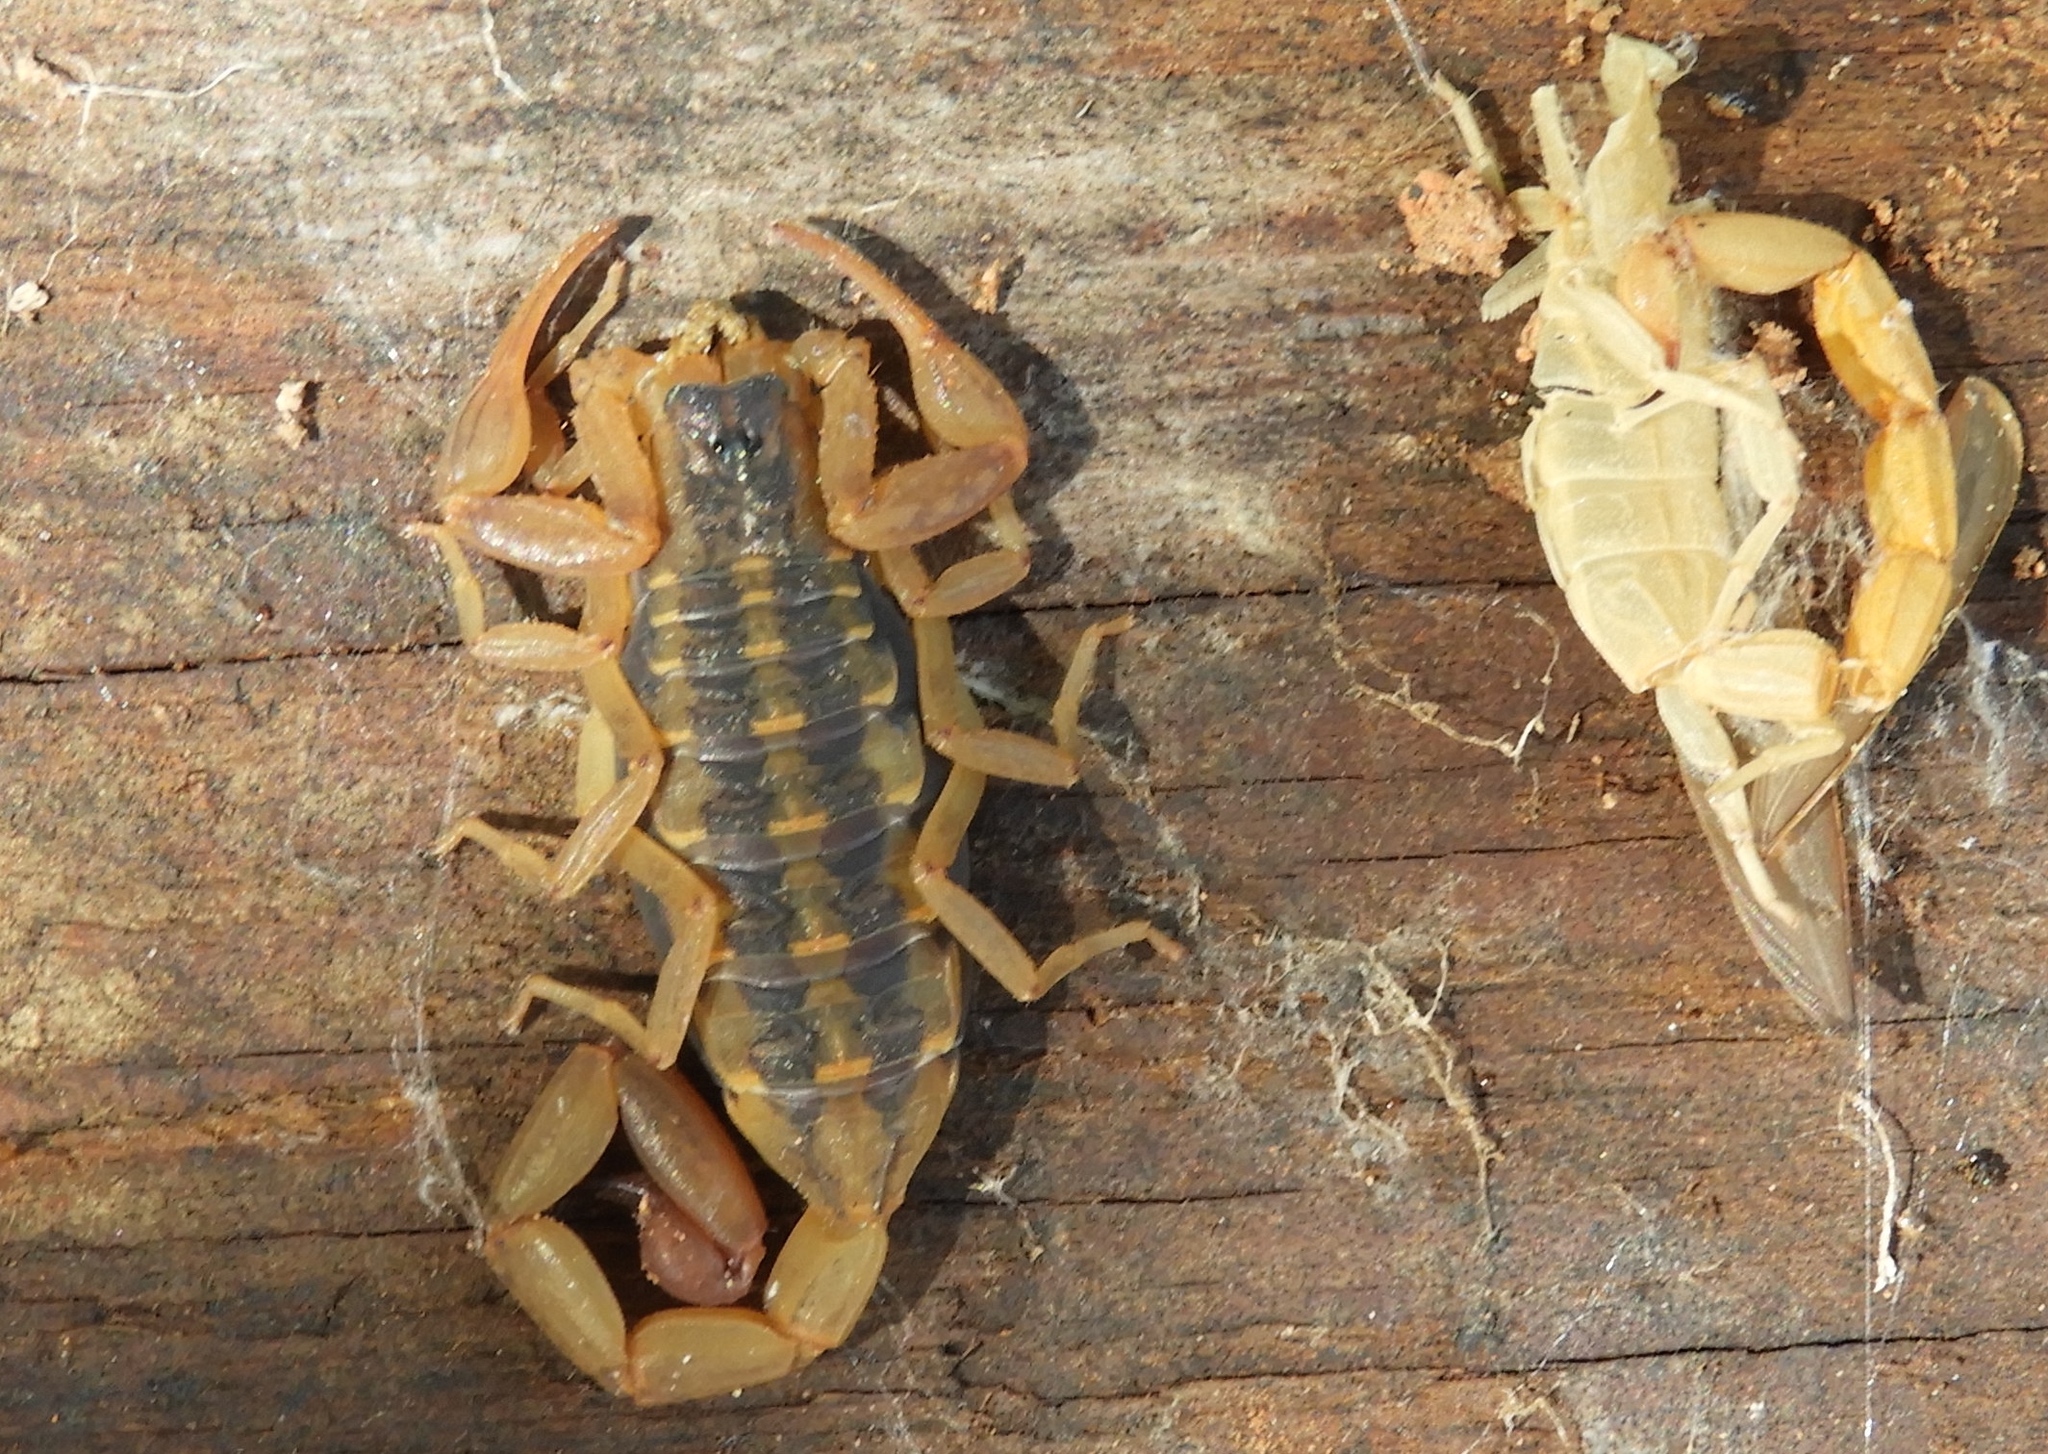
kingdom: Animalia
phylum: Arthropoda
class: Arachnida
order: Scorpiones
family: Buthidae
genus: Centruroides
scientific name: Centruroides
